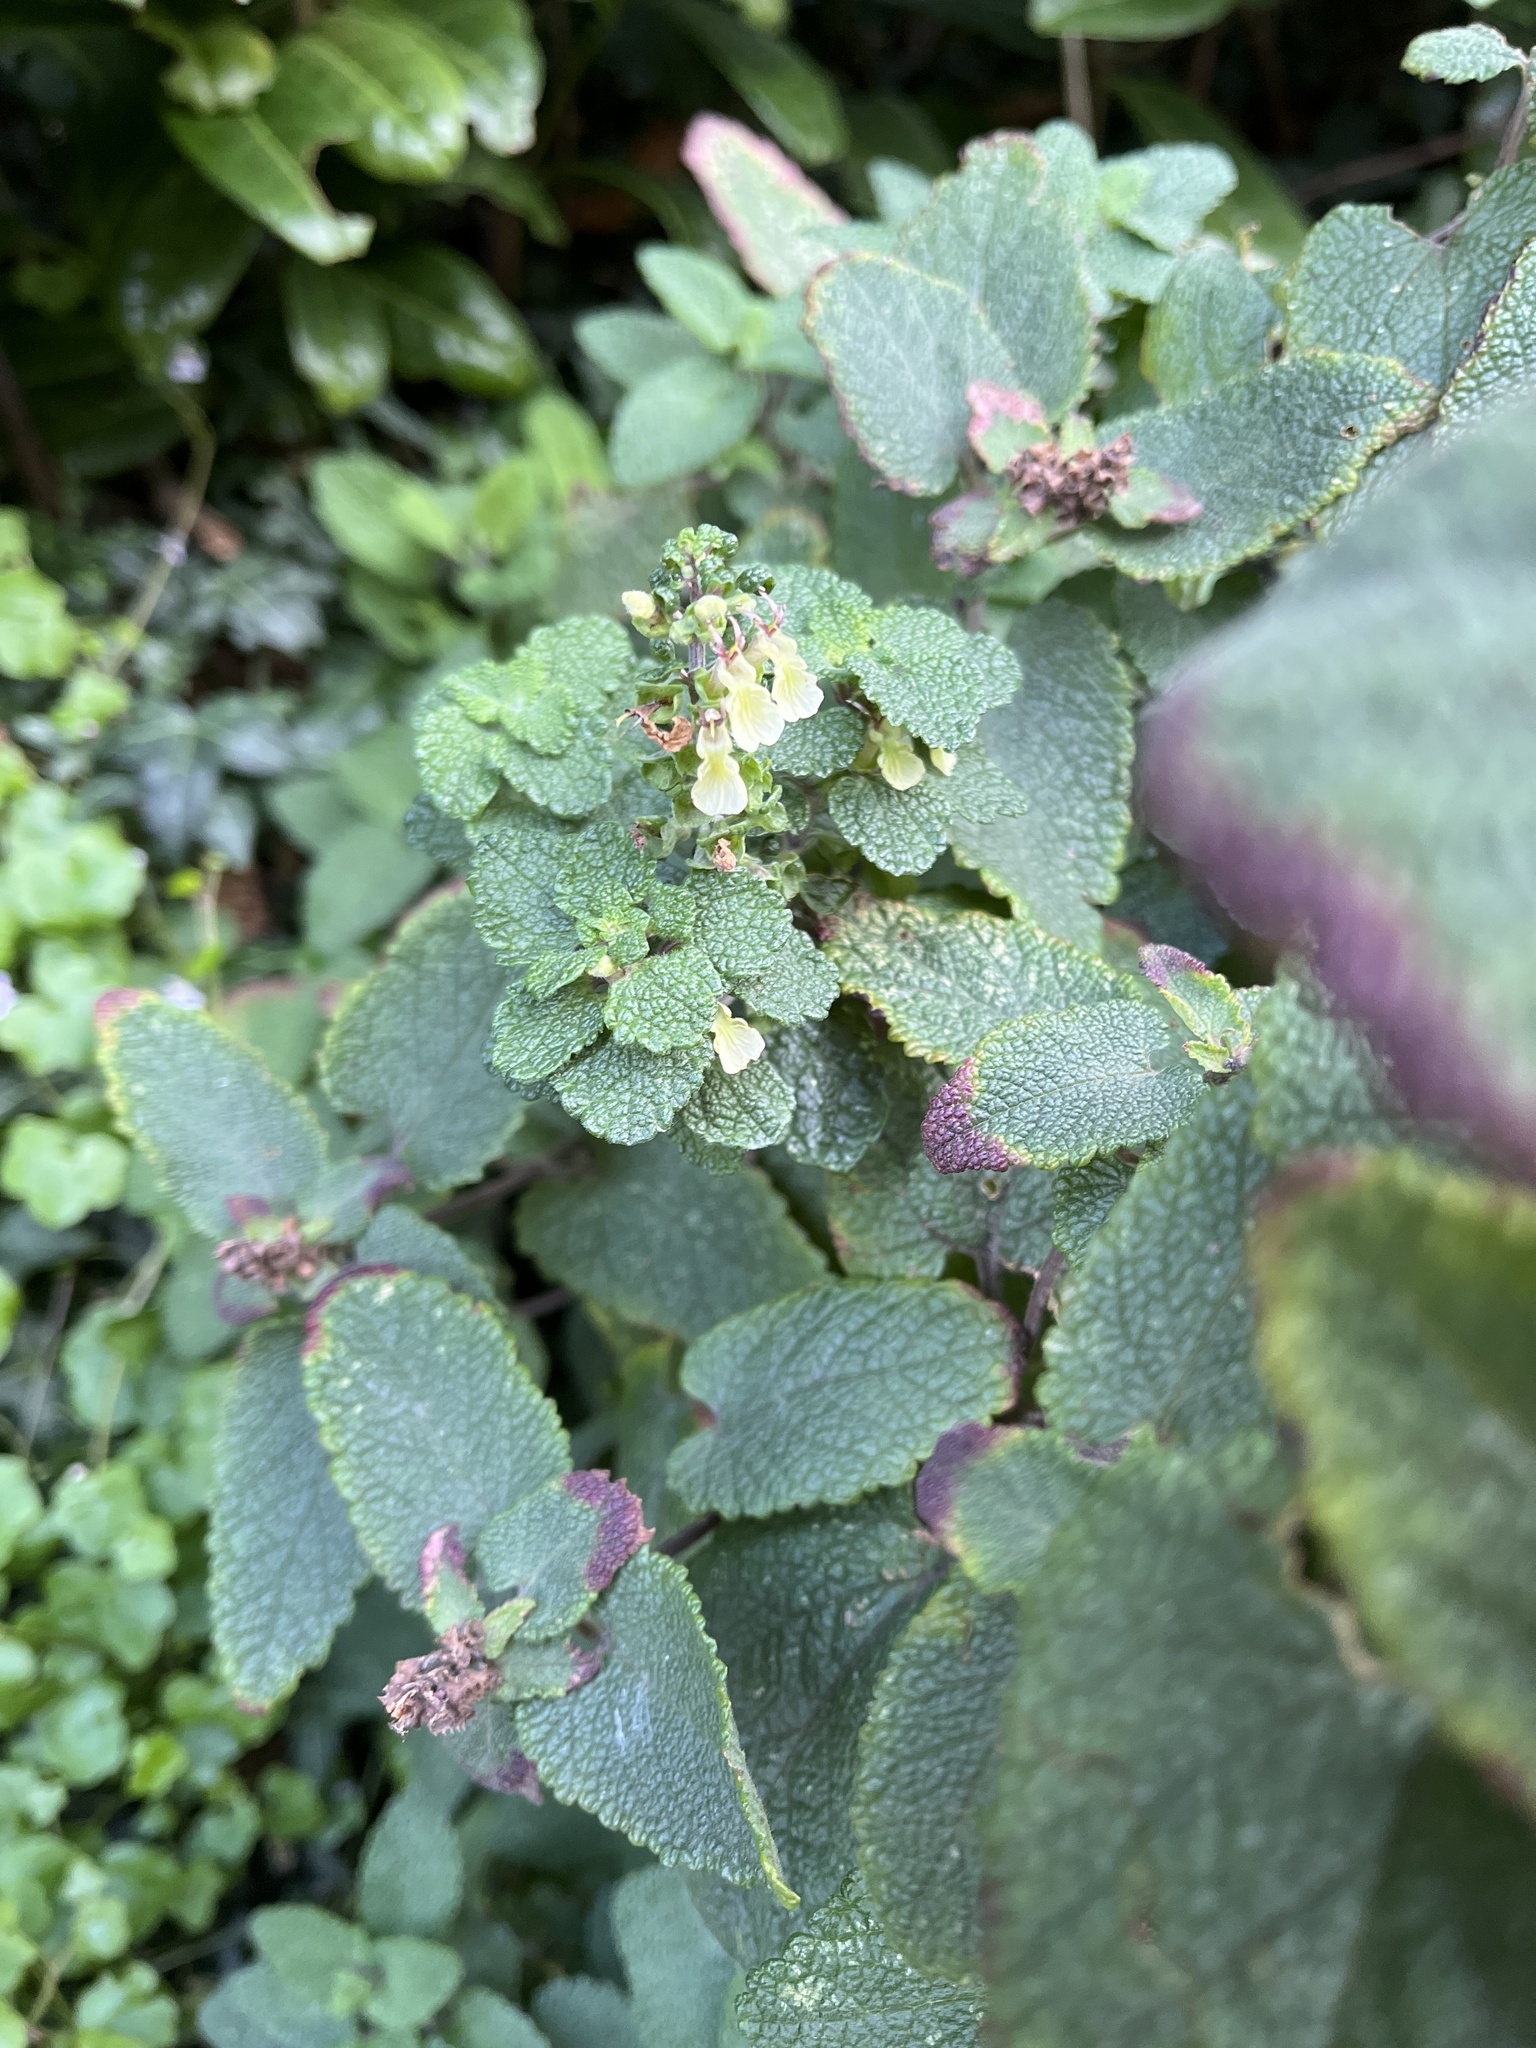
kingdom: Plantae
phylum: Tracheophyta
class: Magnoliopsida
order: Lamiales
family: Lamiaceae
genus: Teucrium
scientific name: Teucrium scorodonia
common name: Woodland germander
